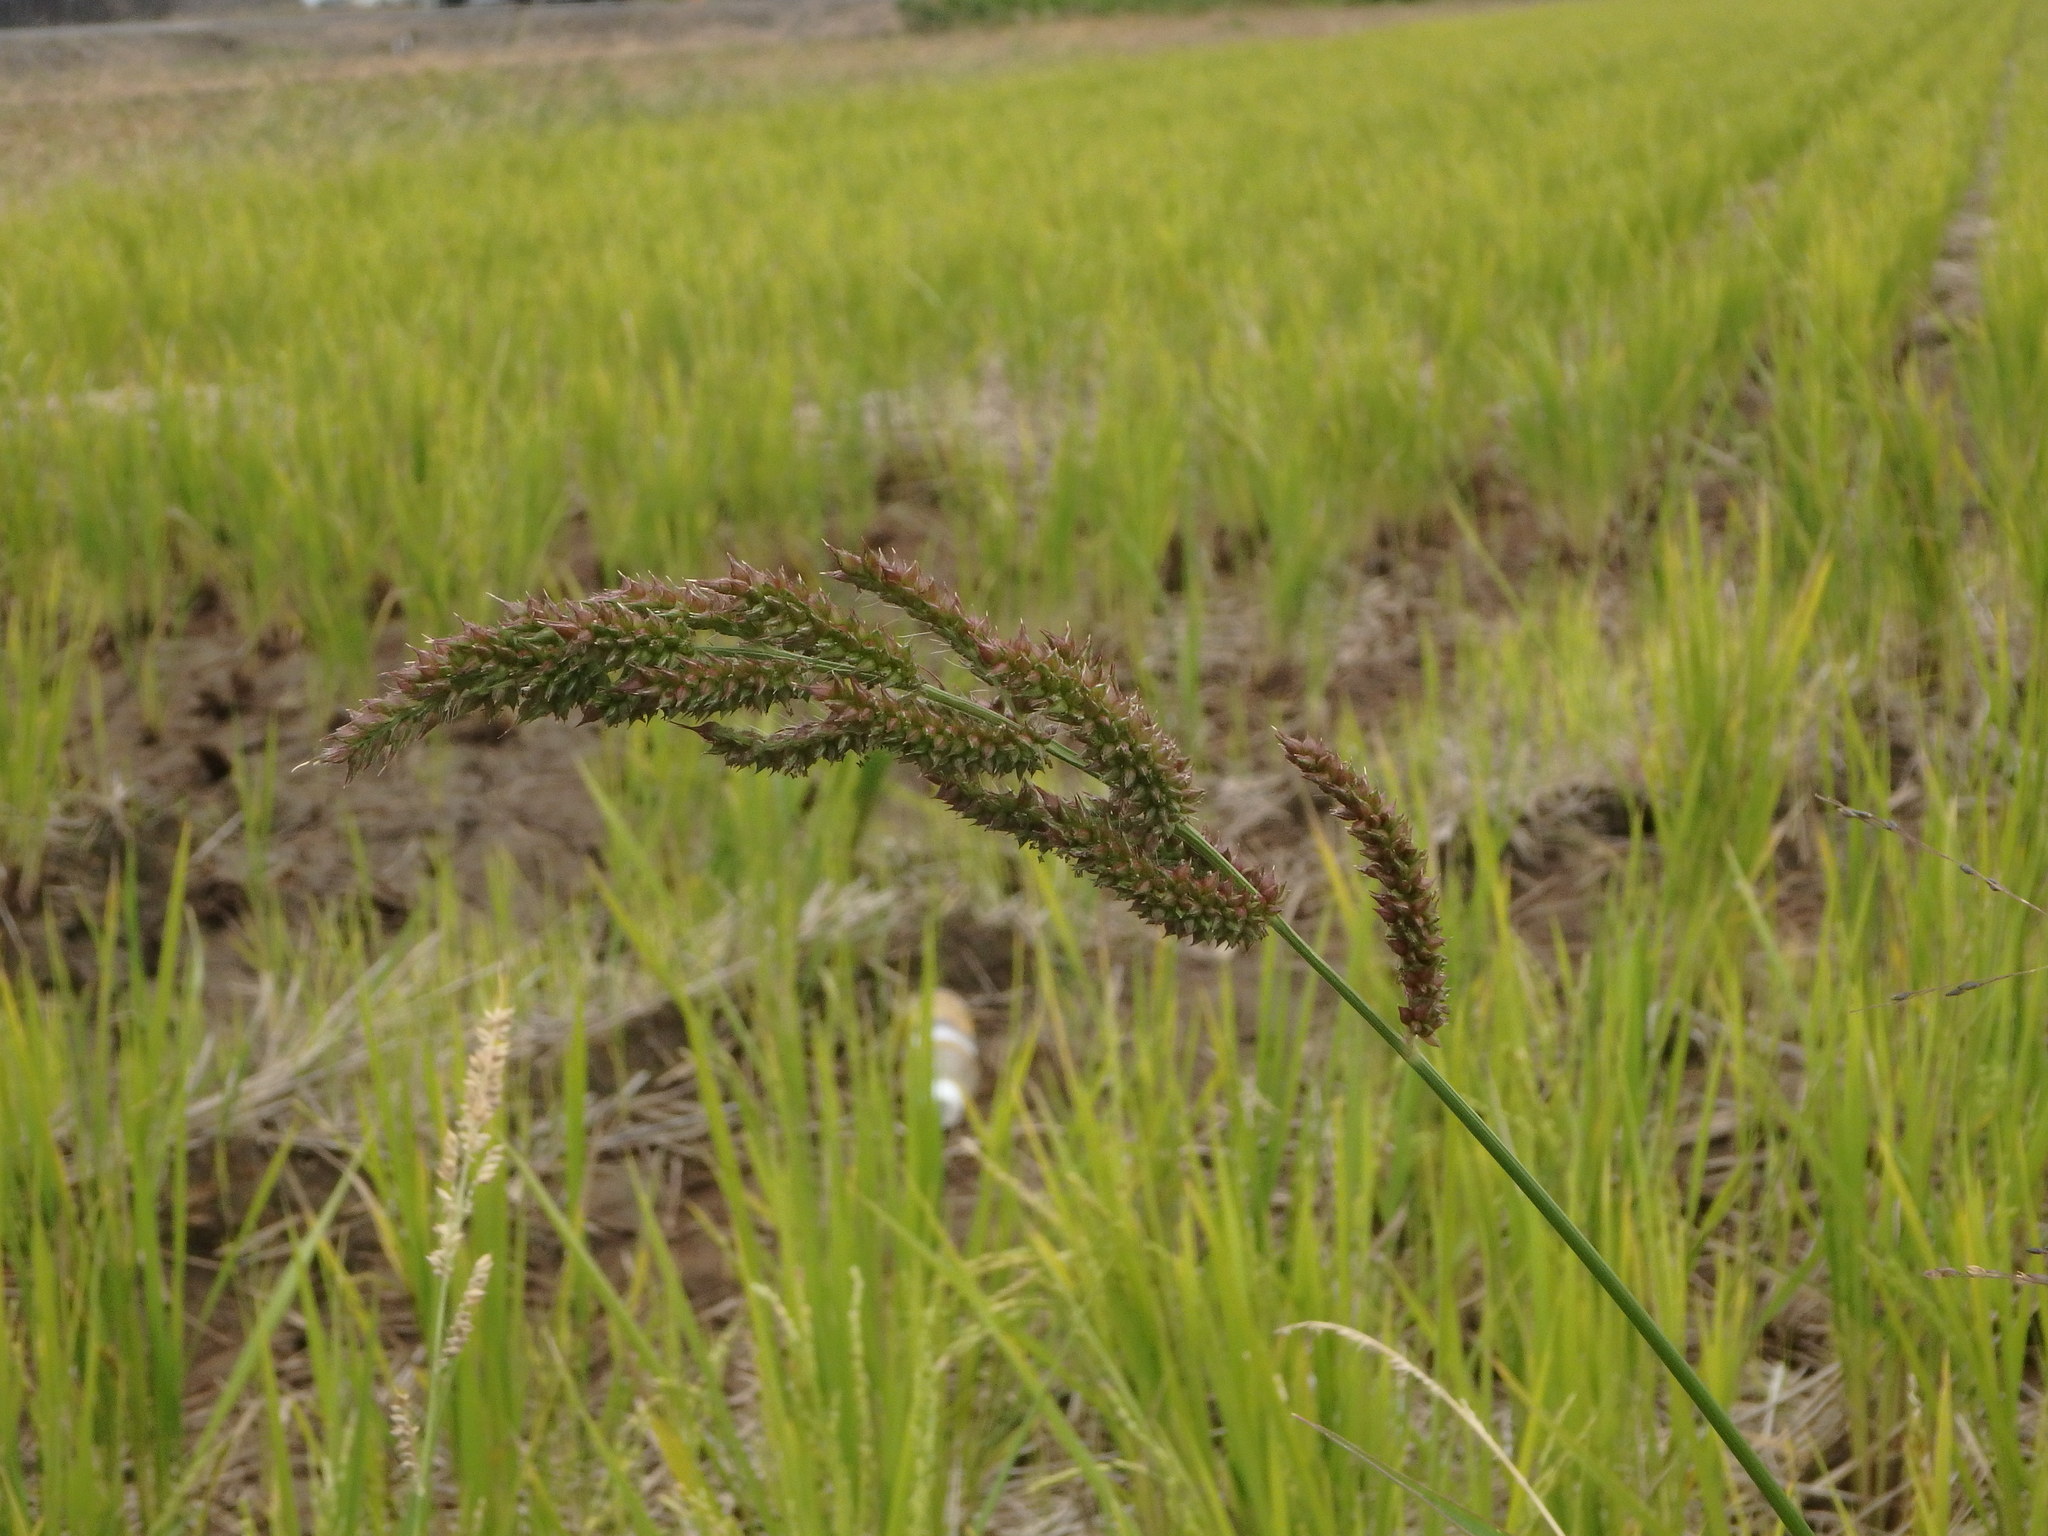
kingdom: Plantae
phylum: Tracheophyta
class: Liliopsida
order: Poales
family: Poaceae
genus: Echinochloa
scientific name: Echinochloa crus-galli
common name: Cockspur
